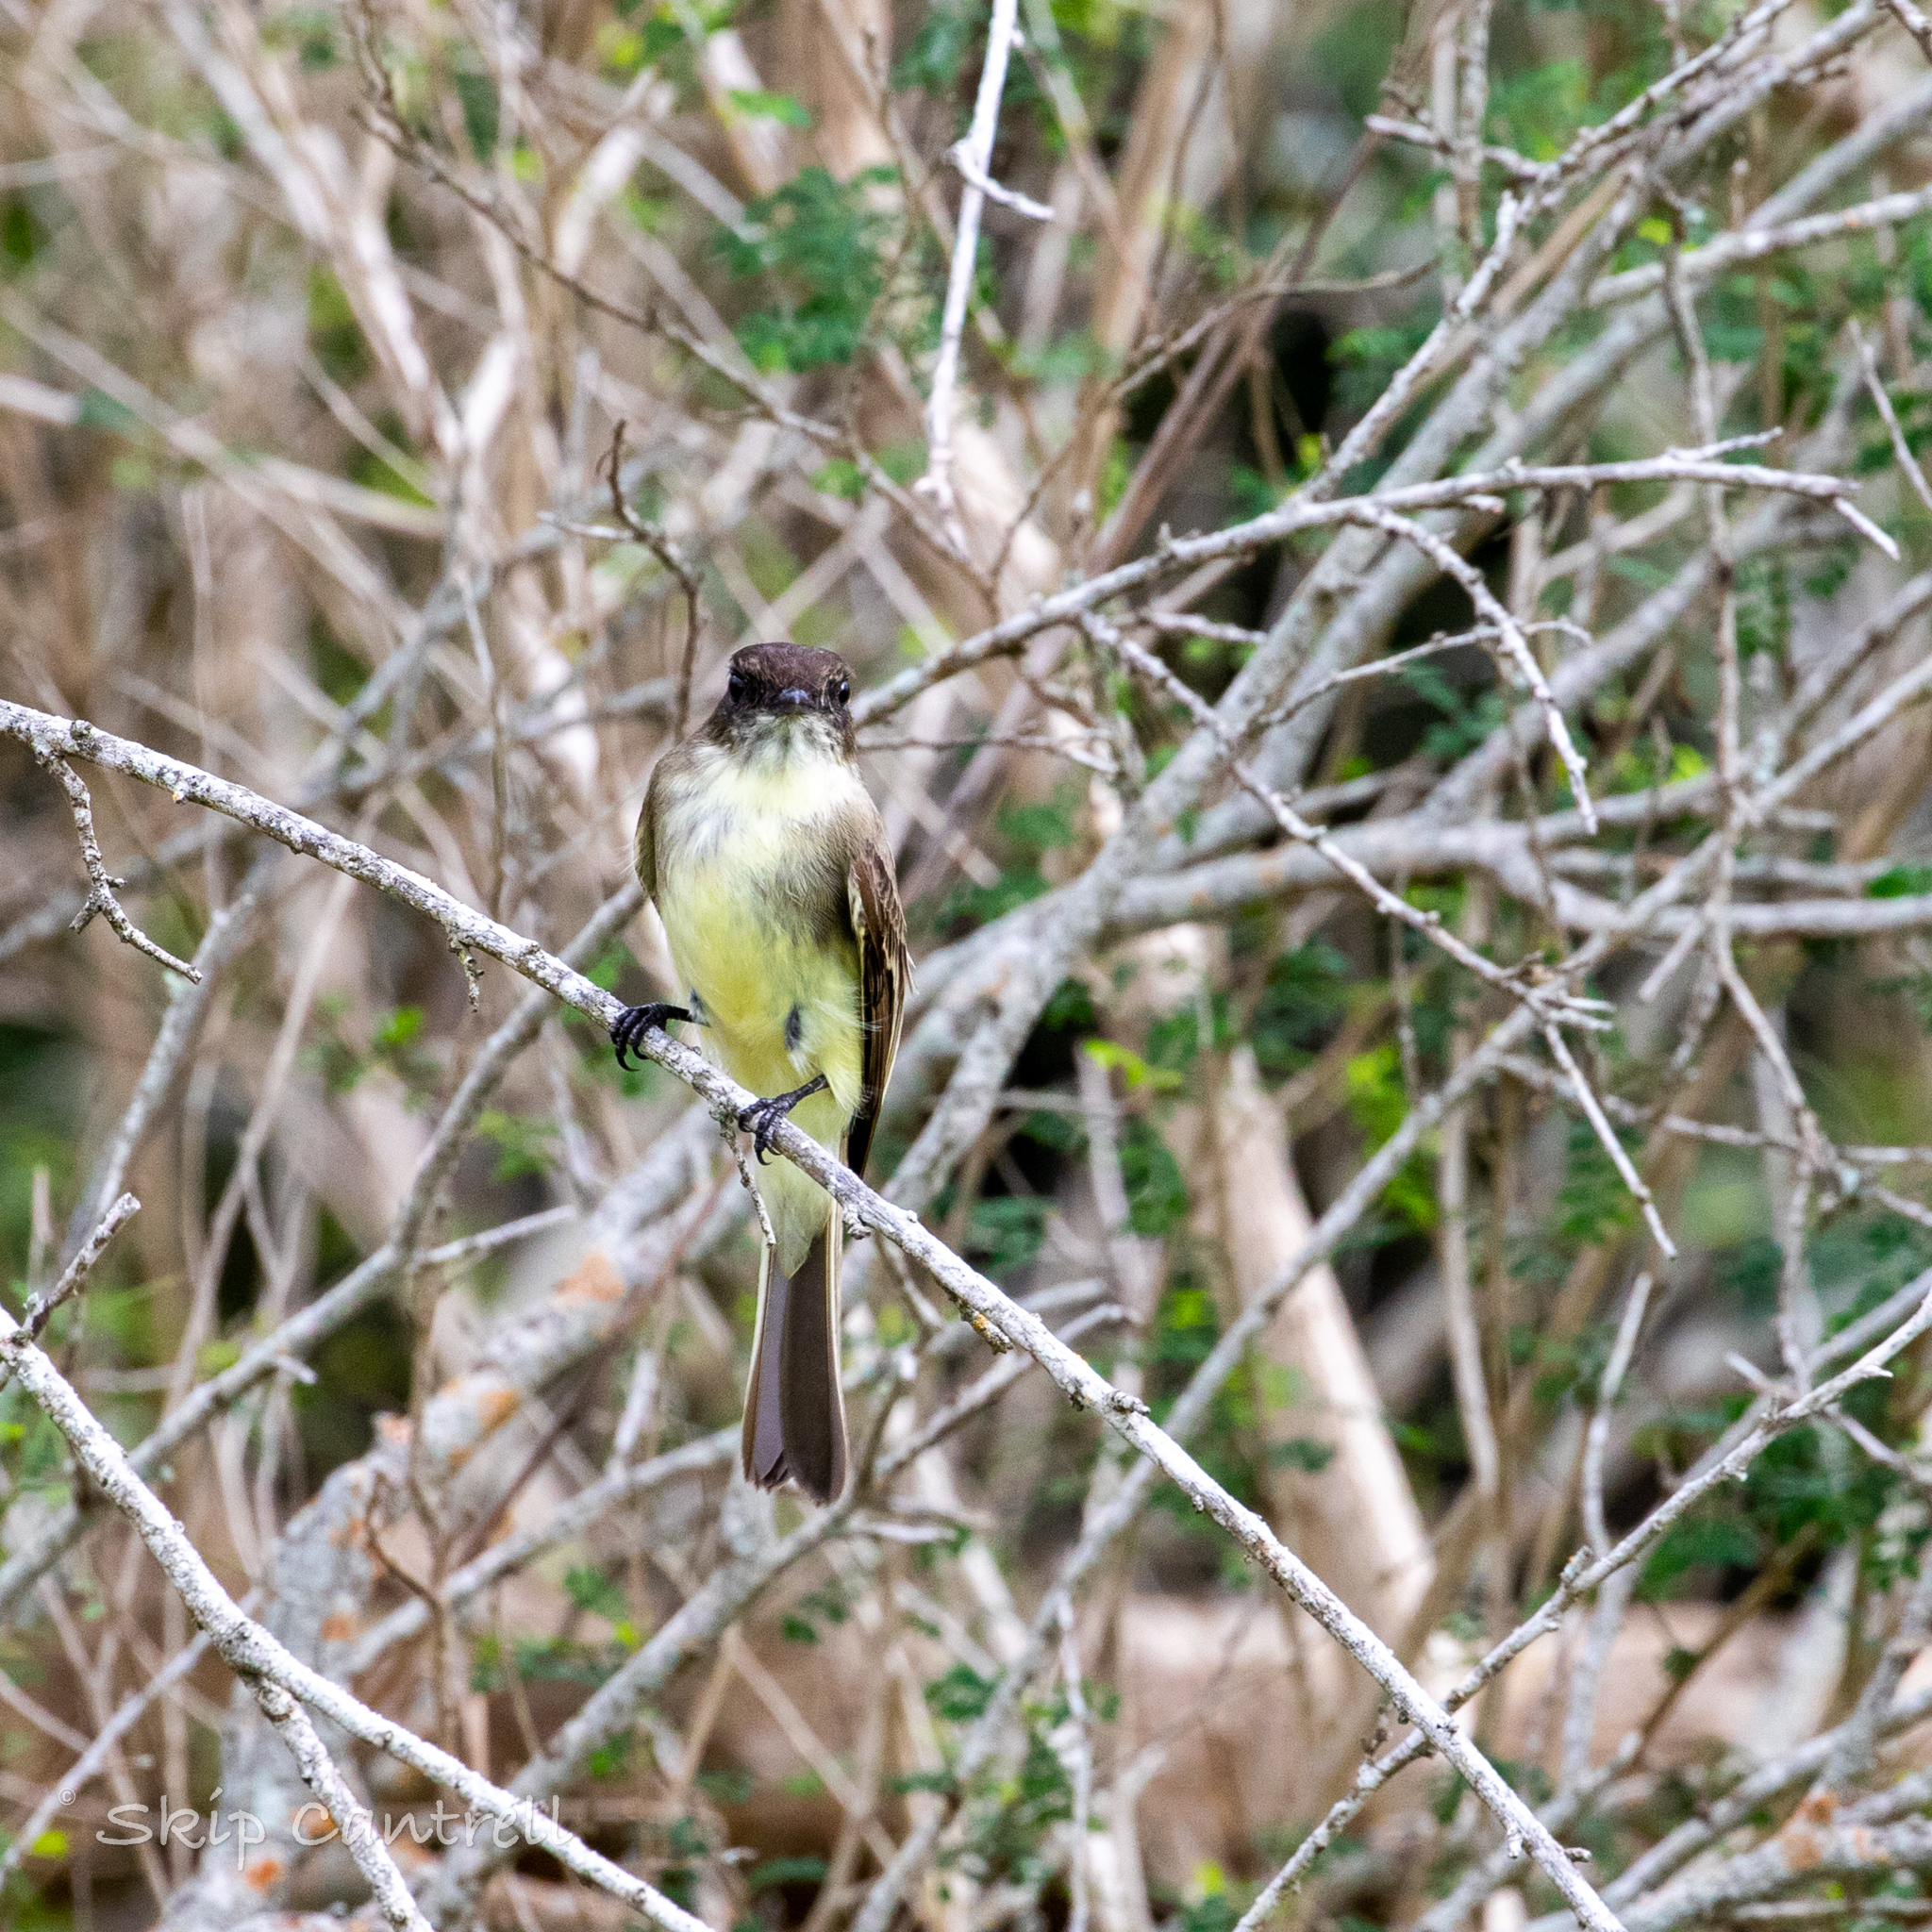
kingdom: Animalia
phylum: Chordata
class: Aves
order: Passeriformes
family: Tyrannidae
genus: Sayornis
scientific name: Sayornis phoebe
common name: Eastern phoebe
